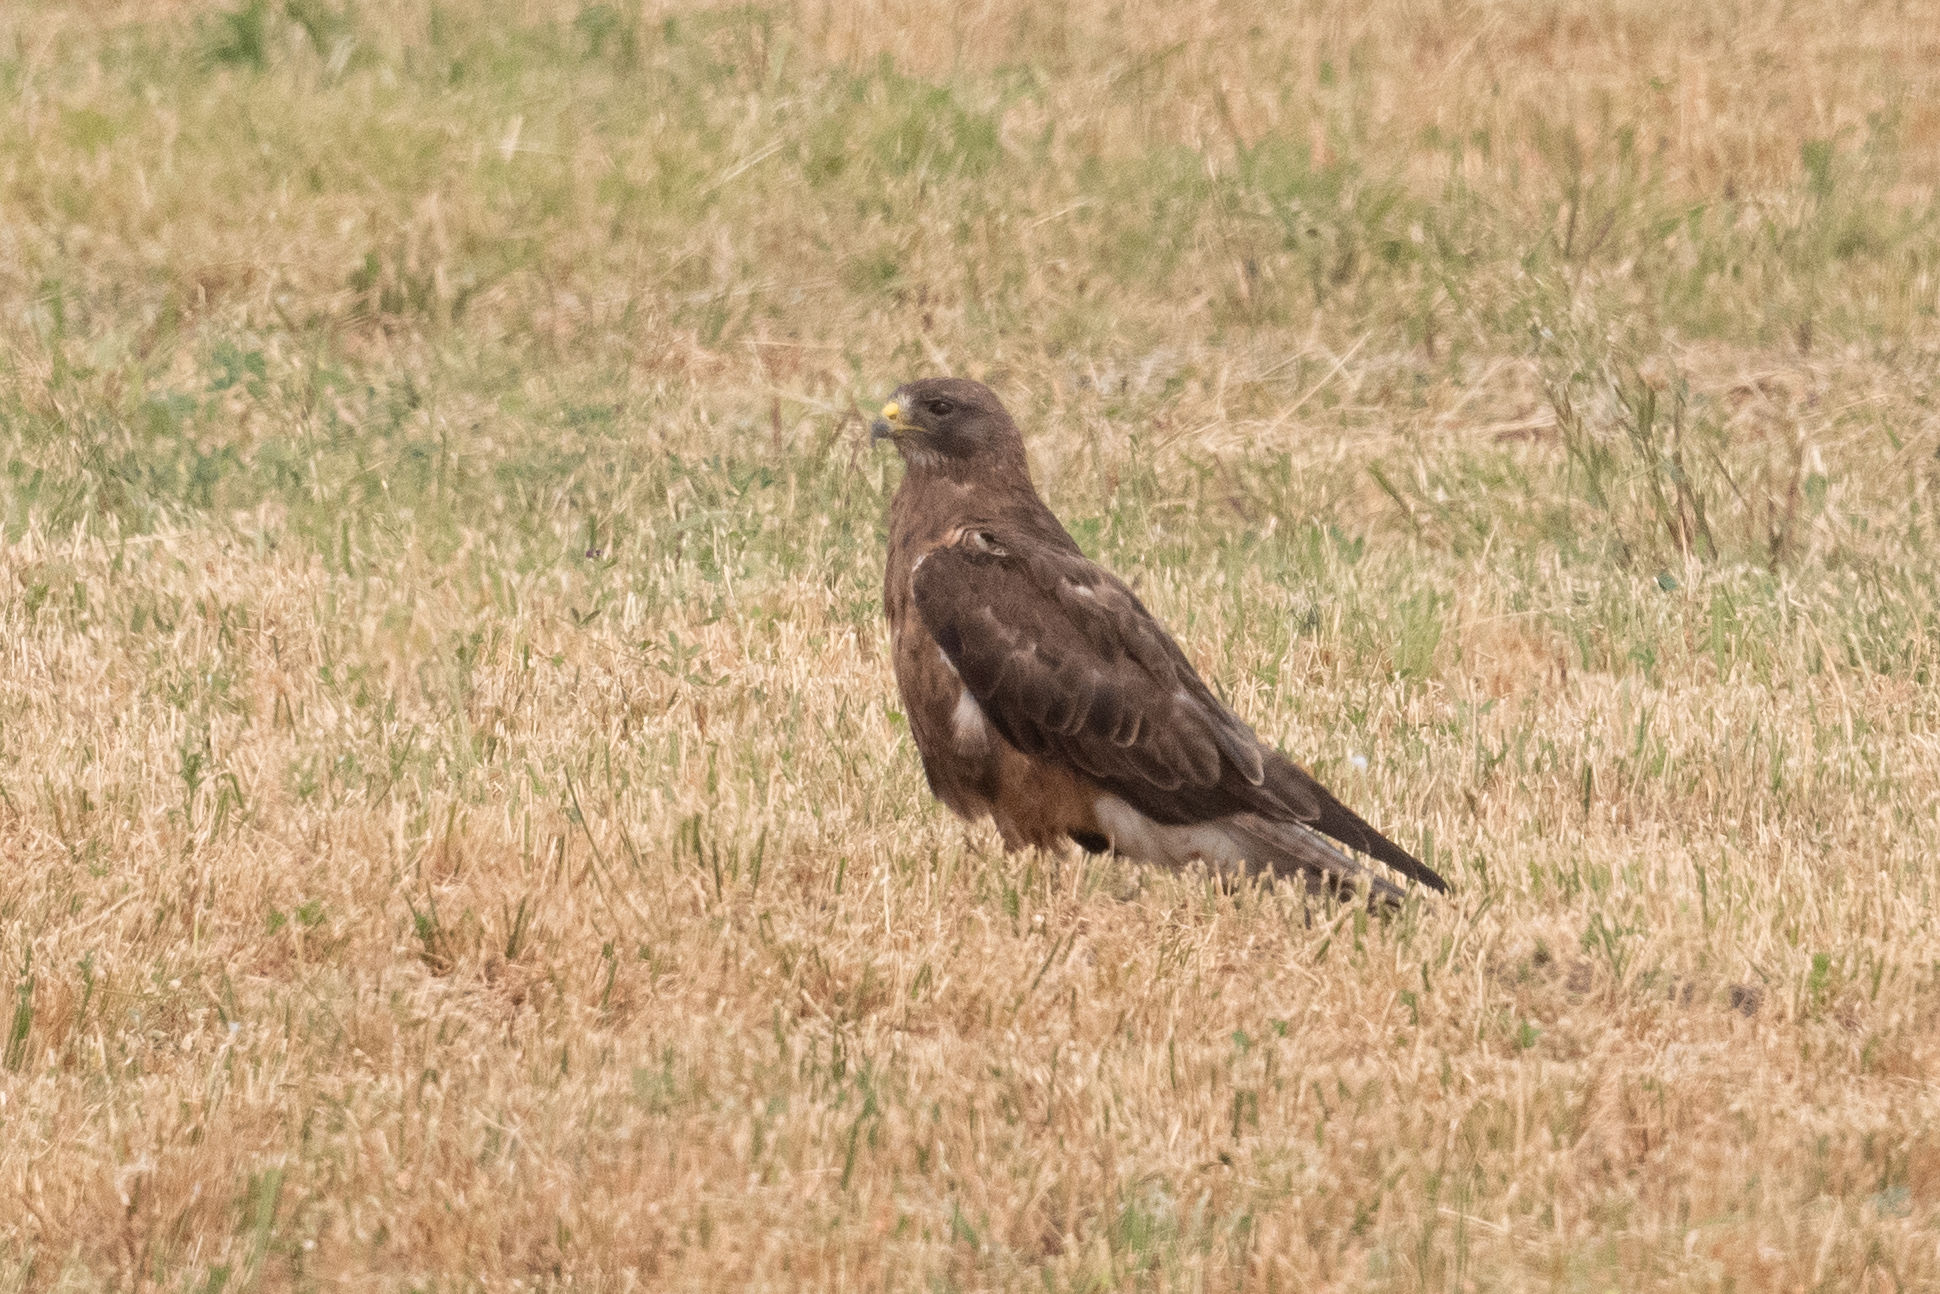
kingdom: Animalia
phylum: Chordata
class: Aves
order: Accipitriformes
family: Accipitridae
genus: Buteo
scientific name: Buteo swainsoni
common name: Swainson's hawk
